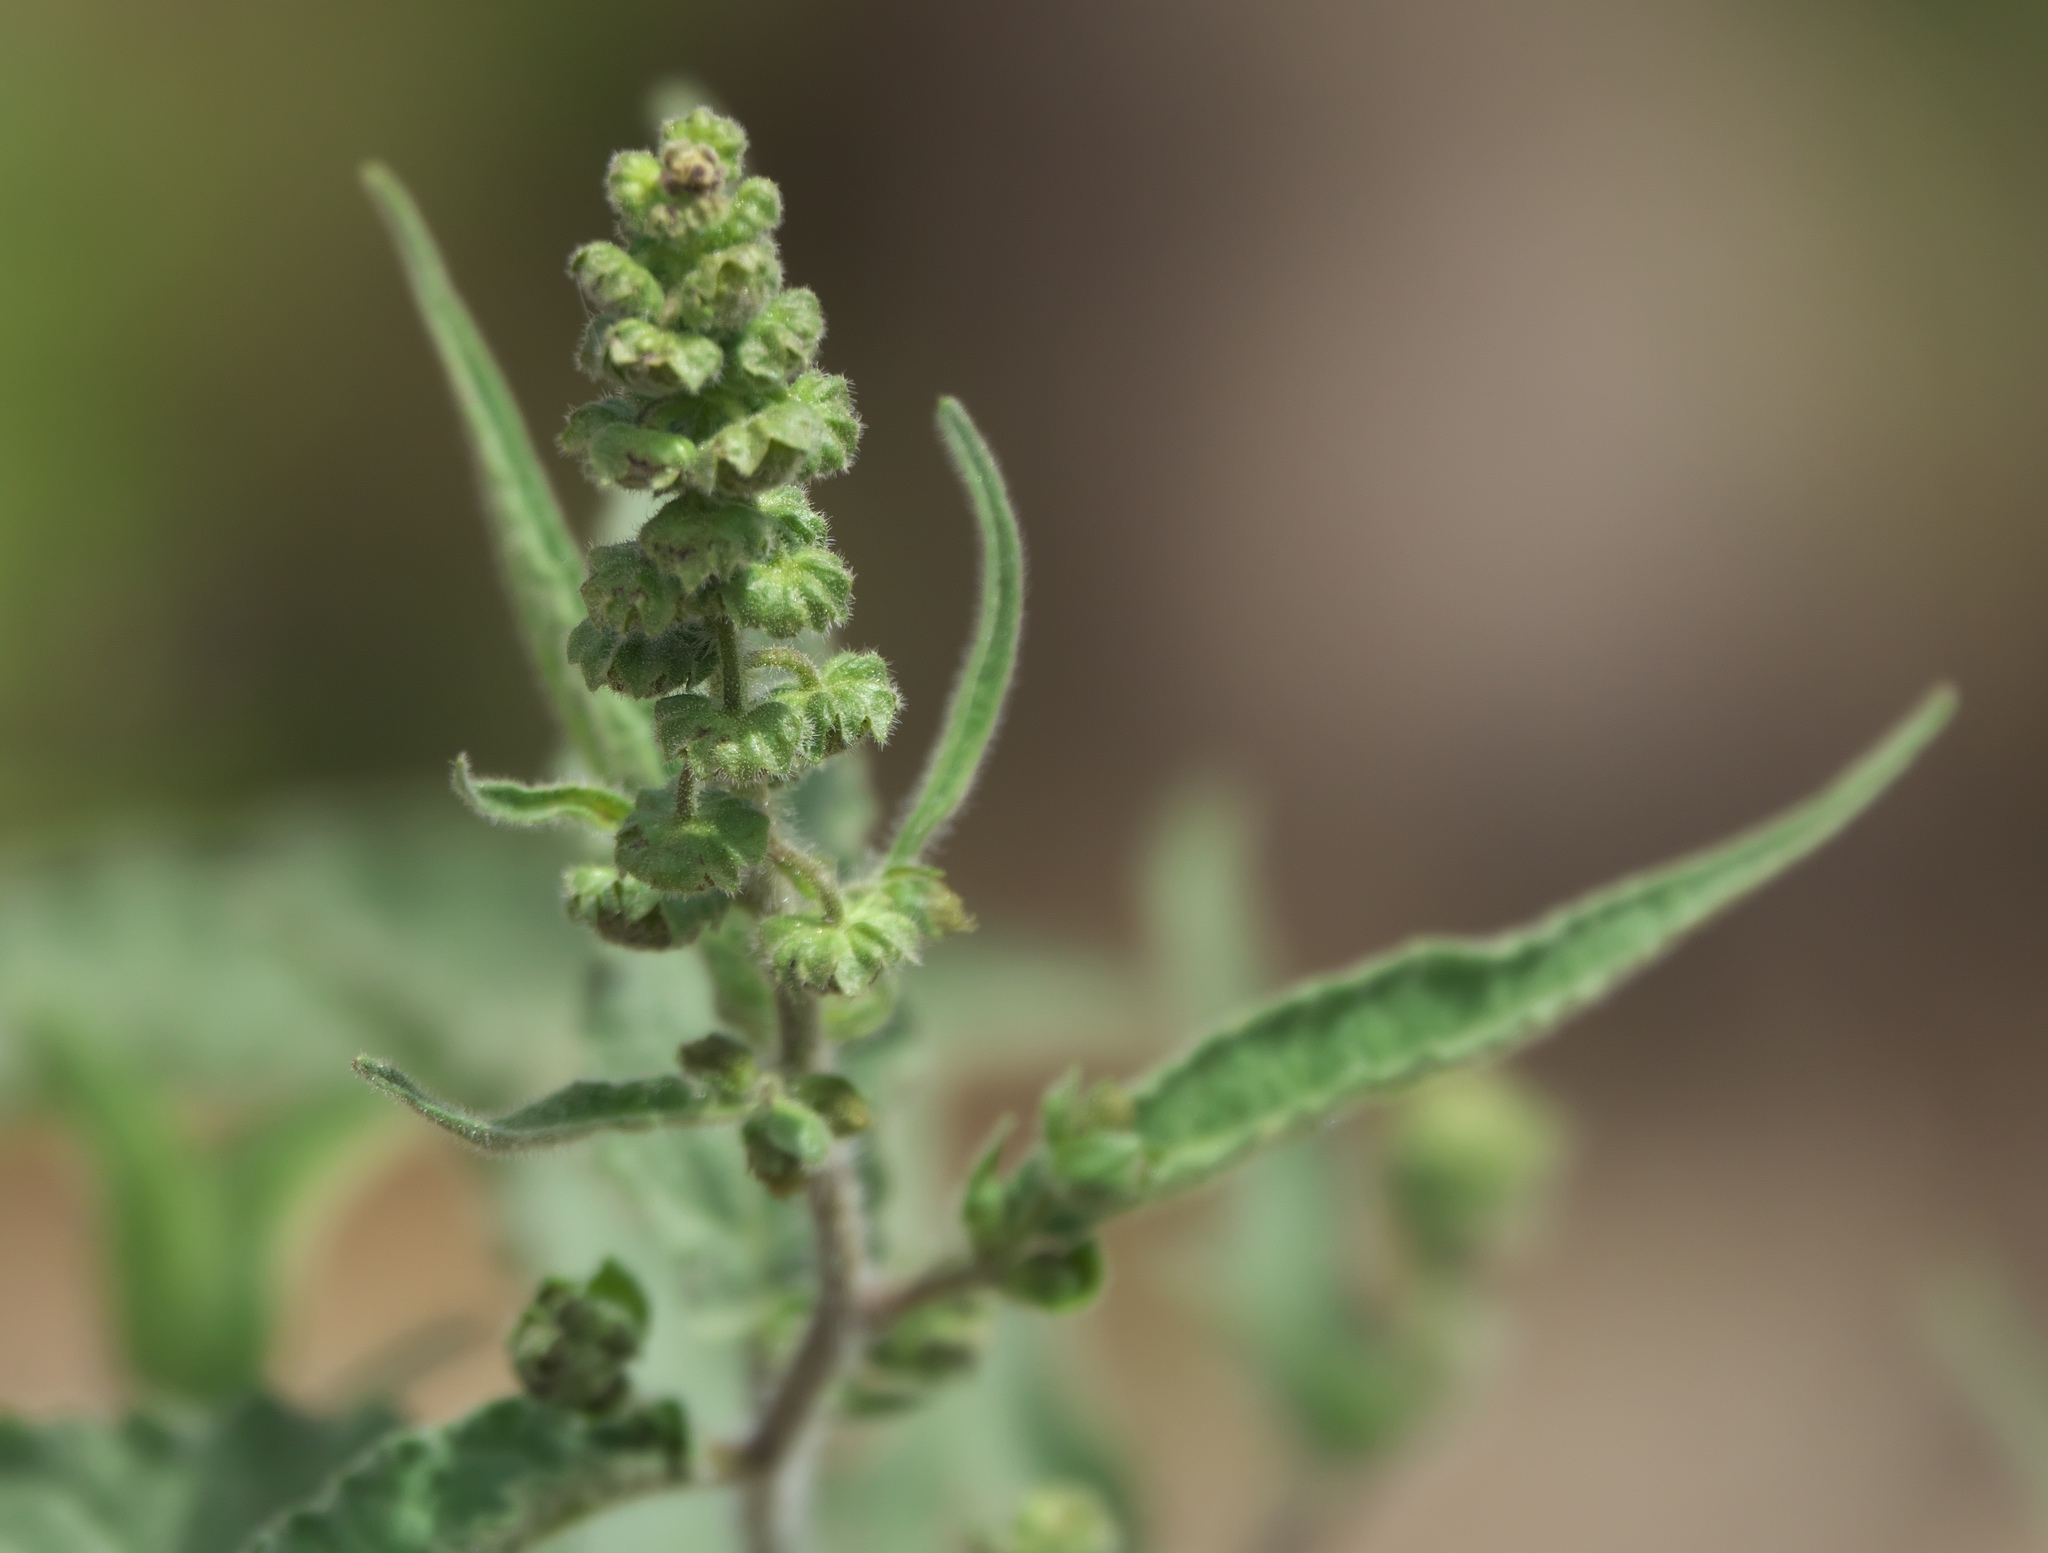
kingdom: Plantae
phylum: Tracheophyta
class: Magnoliopsida
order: Asterales
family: Asteraceae
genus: Ambrosia
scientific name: Ambrosia ambrosioides
